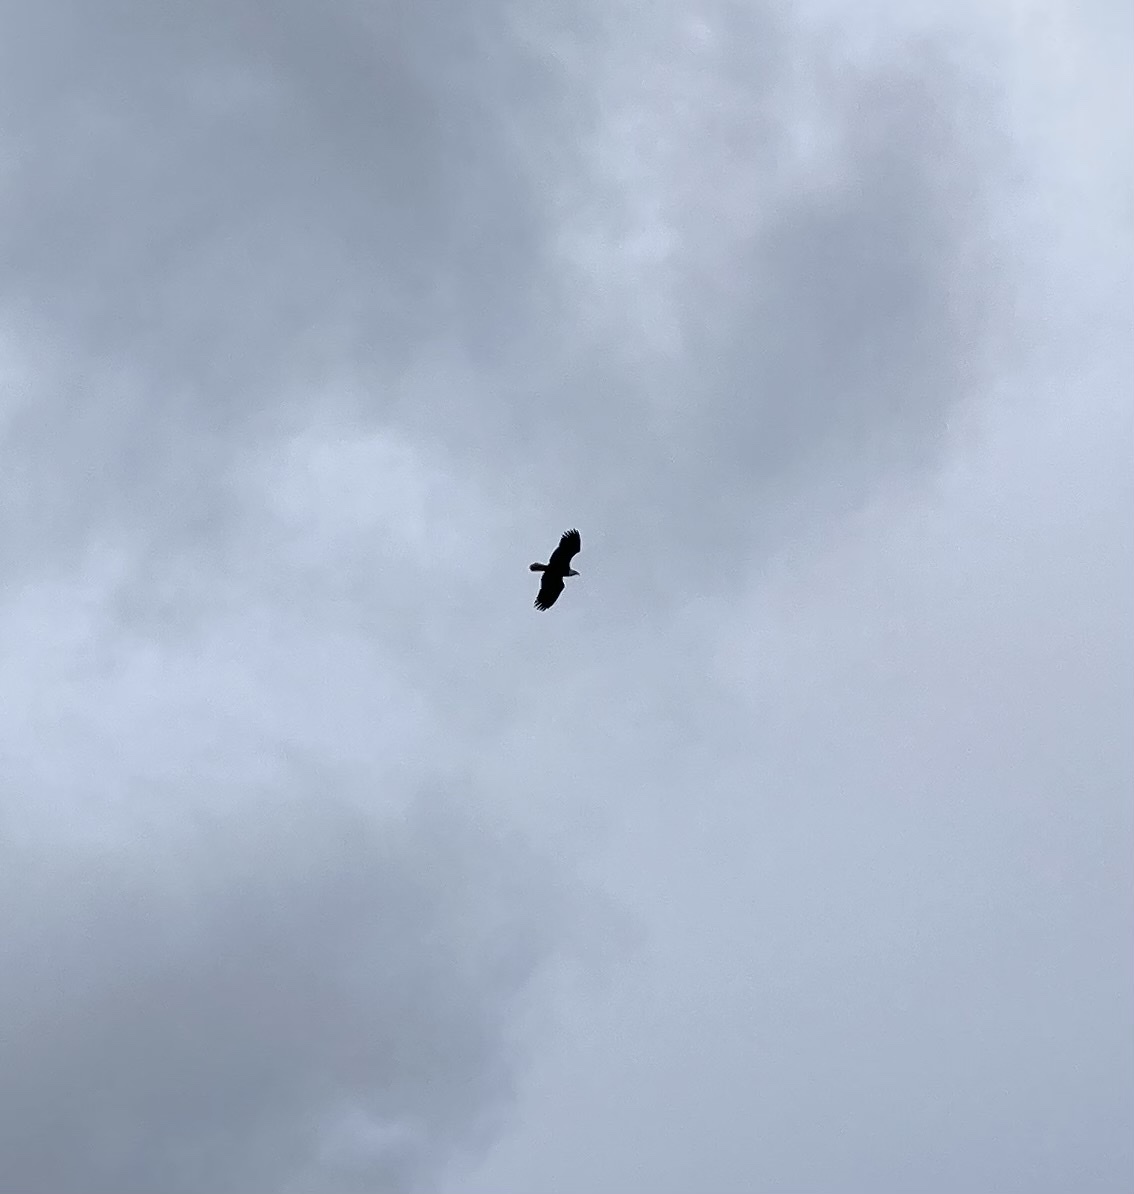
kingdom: Animalia
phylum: Chordata
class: Aves
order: Accipitriformes
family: Accipitridae
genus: Haliaeetus
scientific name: Haliaeetus leucocephalus
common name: Bald eagle
